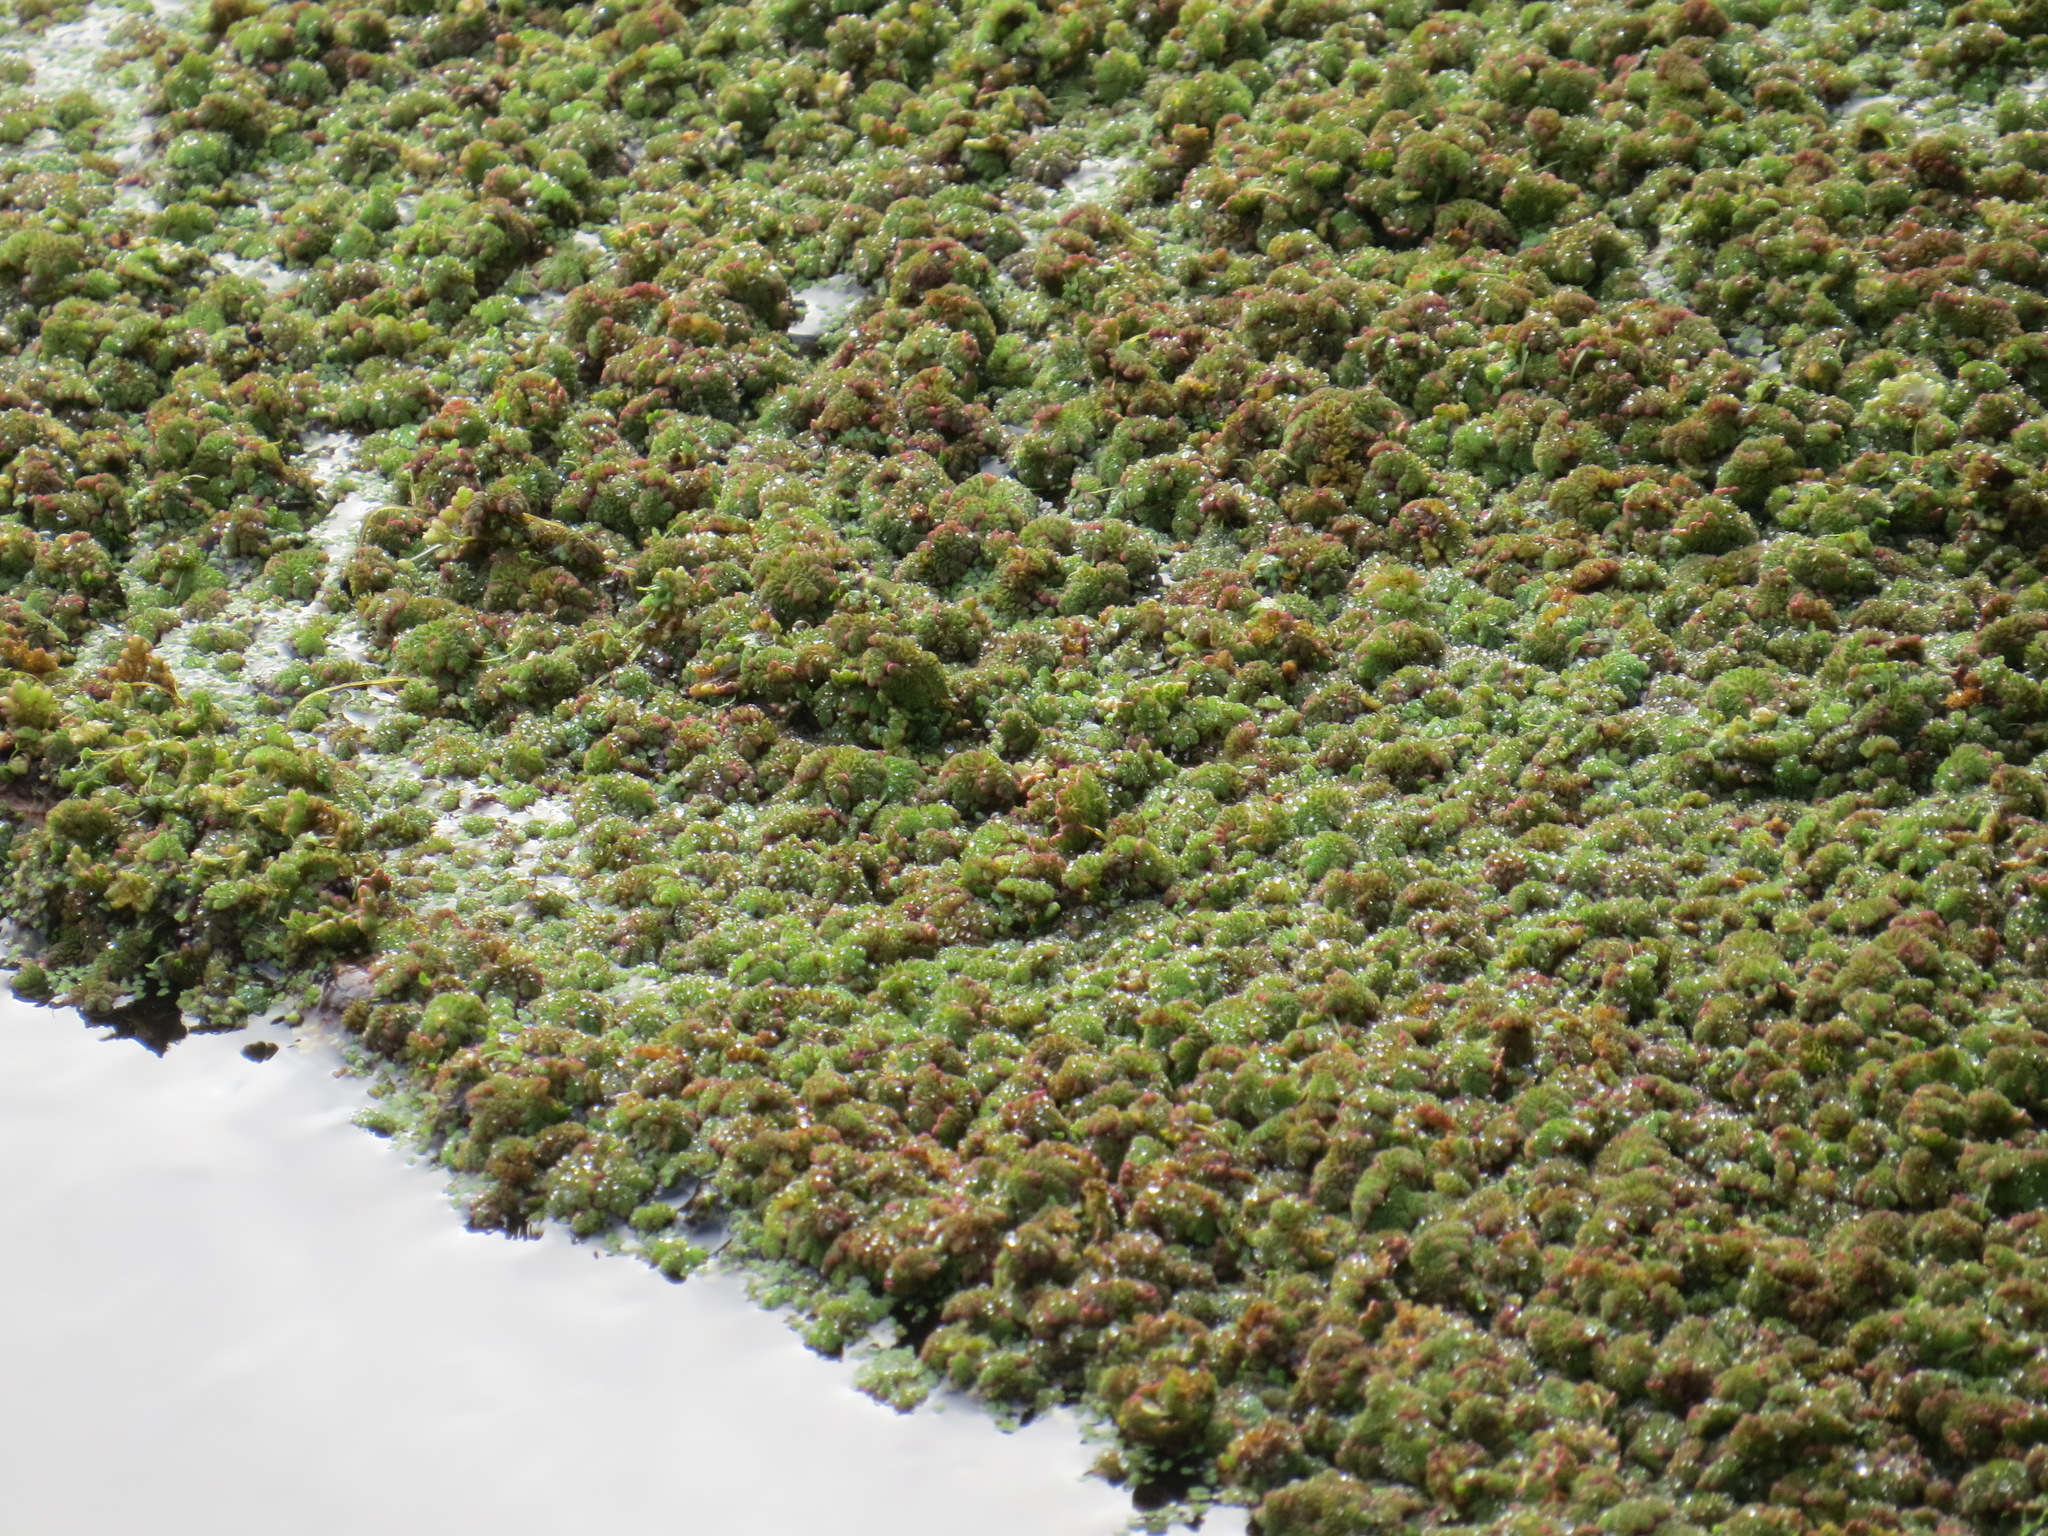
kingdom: Plantae
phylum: Tracheophyta
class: Polypodiopsida
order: Salviniales
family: Salviniaceae
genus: Azolla
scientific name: Azolla filiculoides
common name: Water fern
